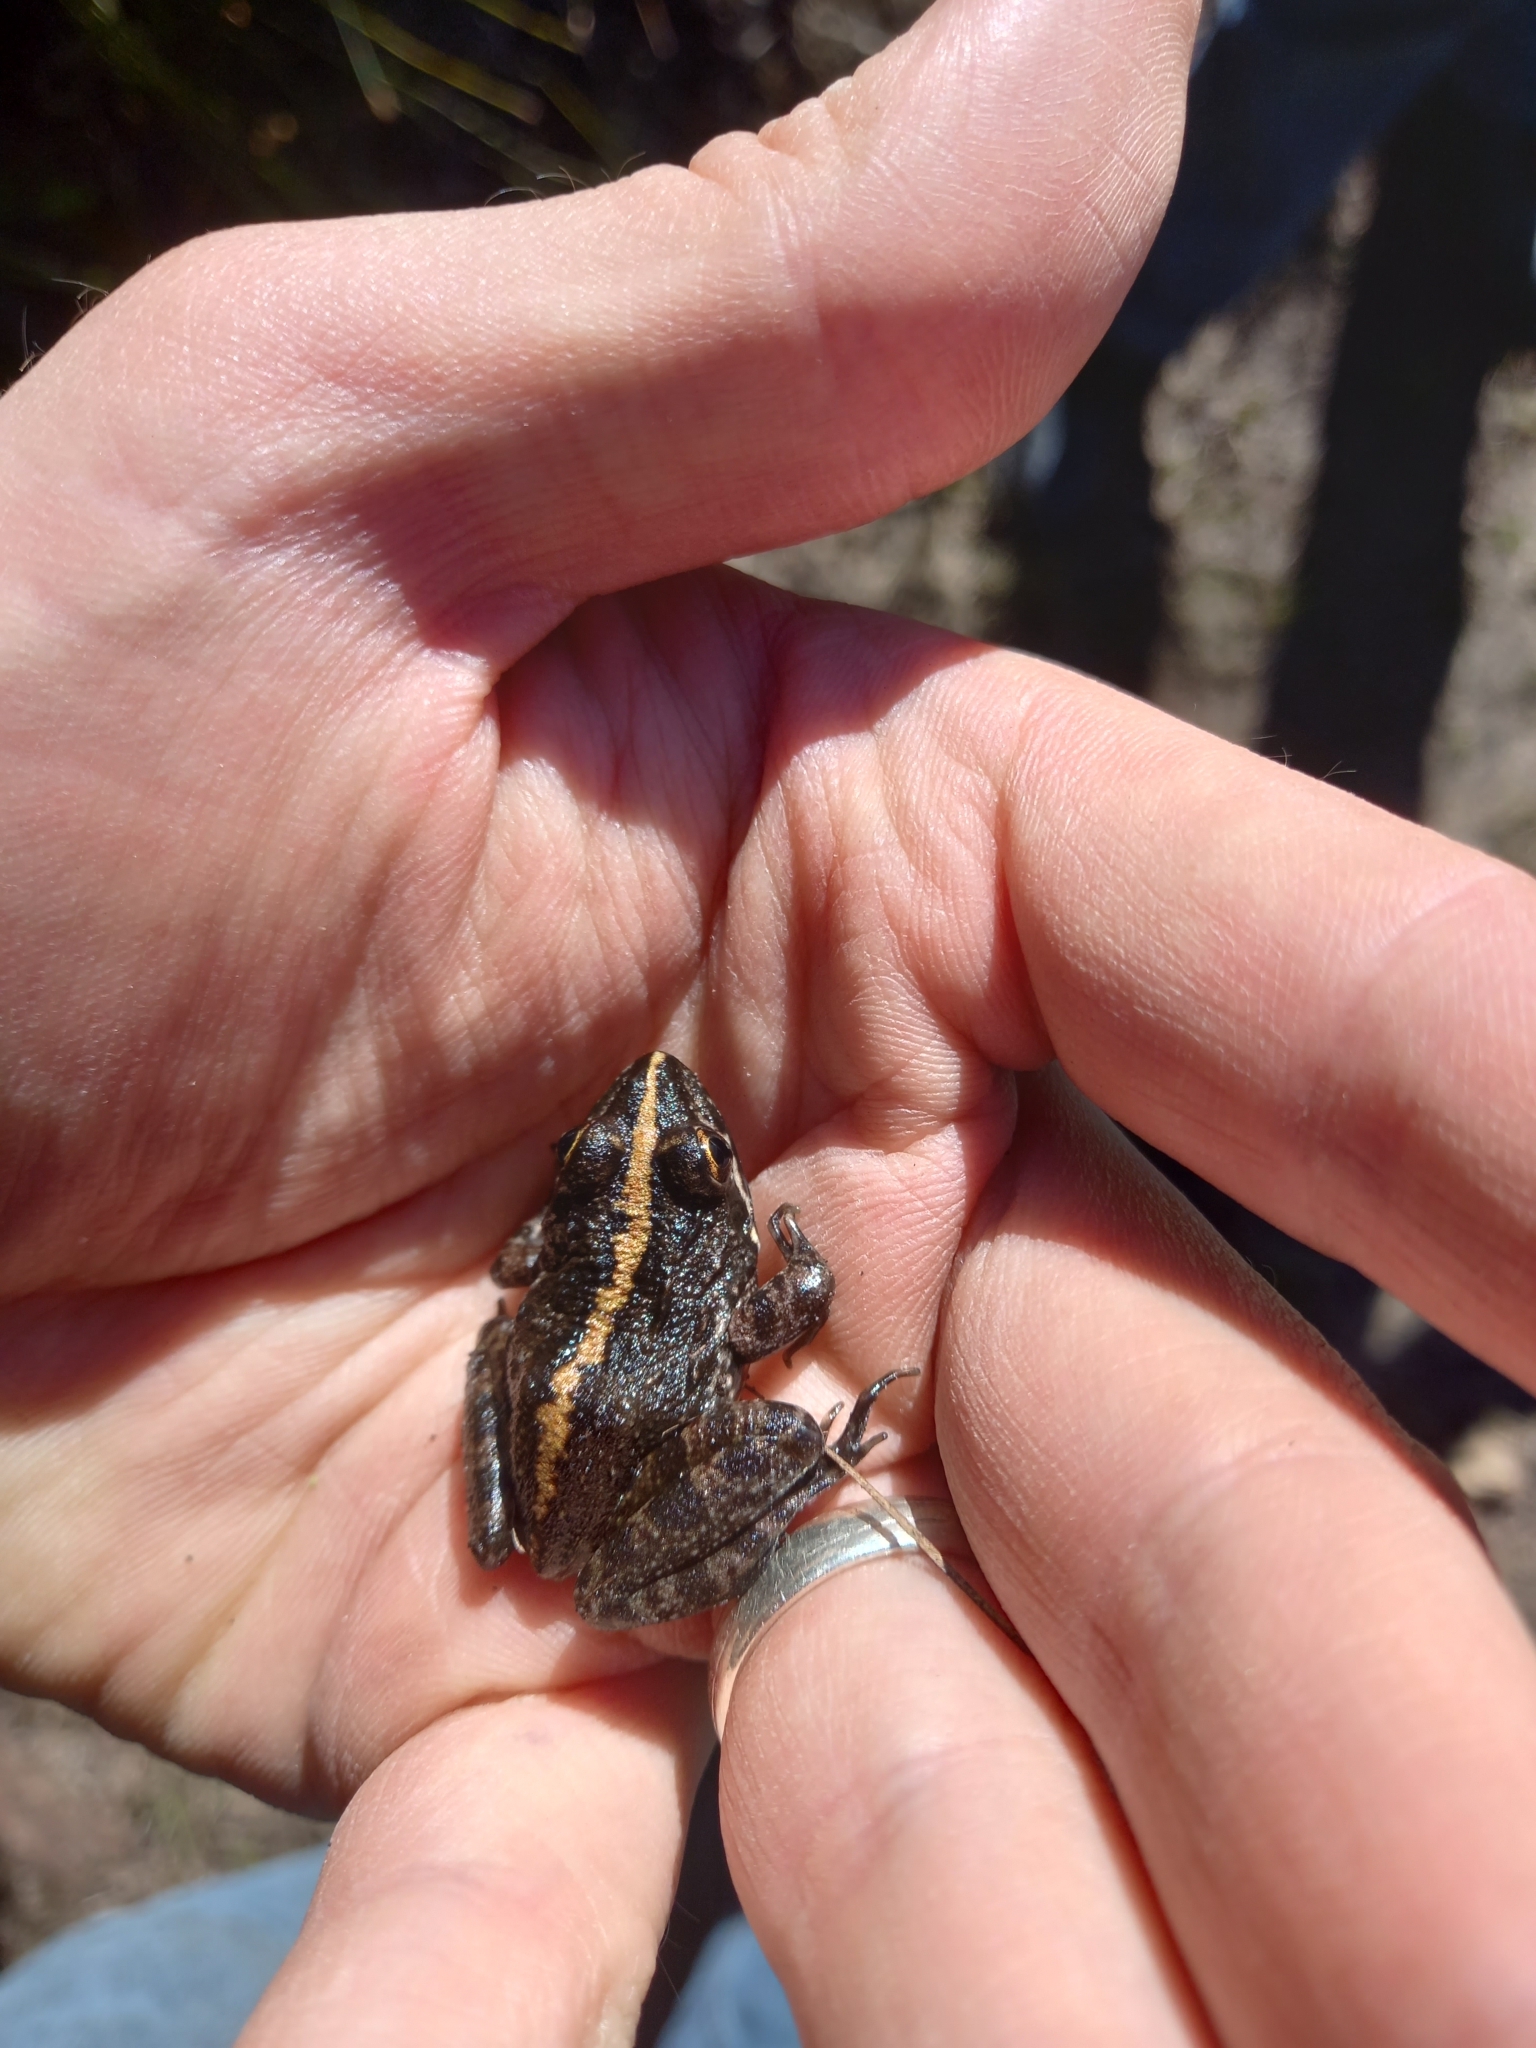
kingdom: Animalia
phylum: Chordata
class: Amphibia
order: Anura
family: Pyxicephalidae
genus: Amietia
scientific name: Amietia fuscigula
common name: Cape rana
